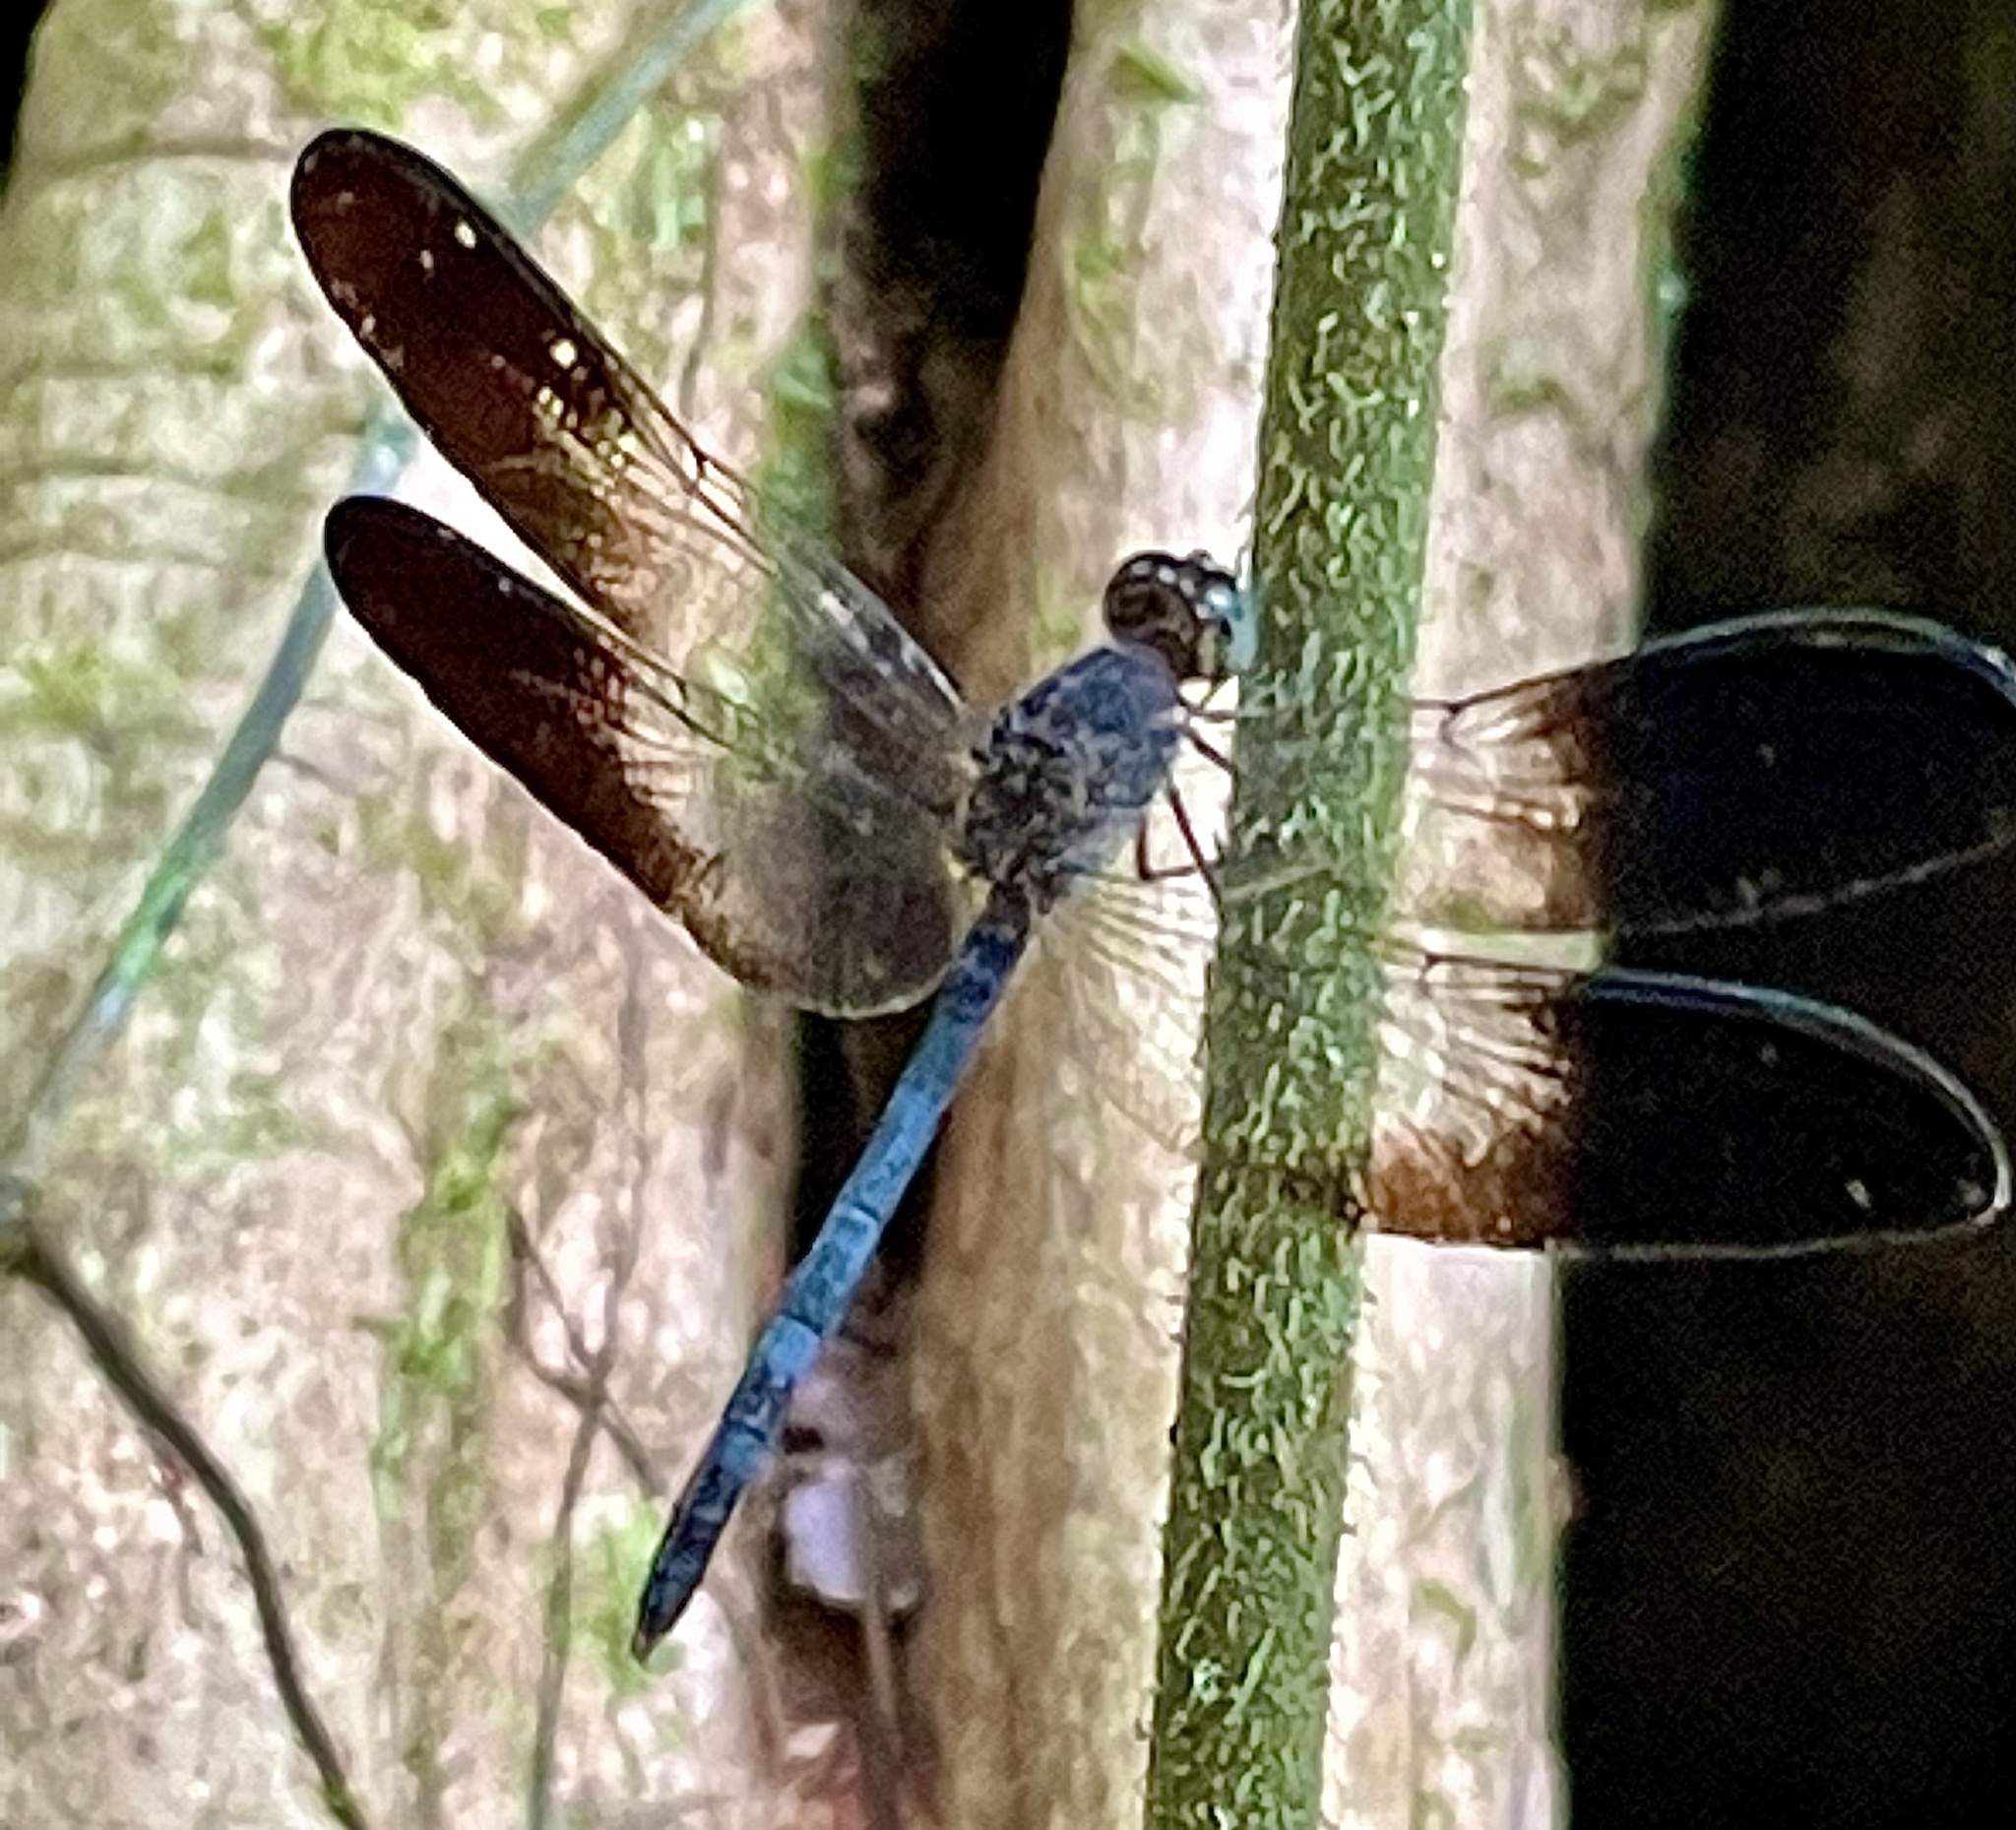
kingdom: Animalia
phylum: Arthropoda
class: Insecta
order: Odonata
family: Libellulidae
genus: Uracis
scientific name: Uracis fastigiata
